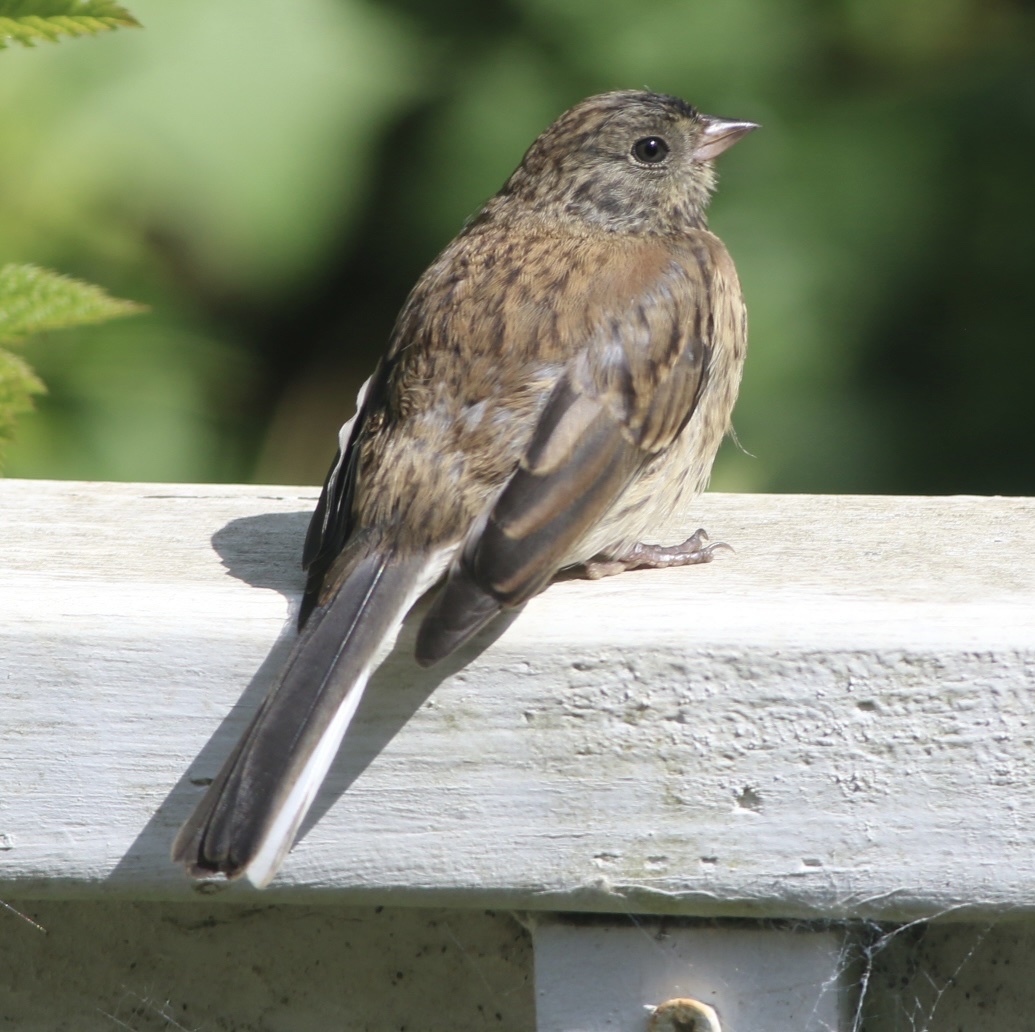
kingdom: Animalia
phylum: Chordata
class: Aves
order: Passeriformes
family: Passerellidae
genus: Junco
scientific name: Junco hyemalis
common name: Dark-eyed junco
